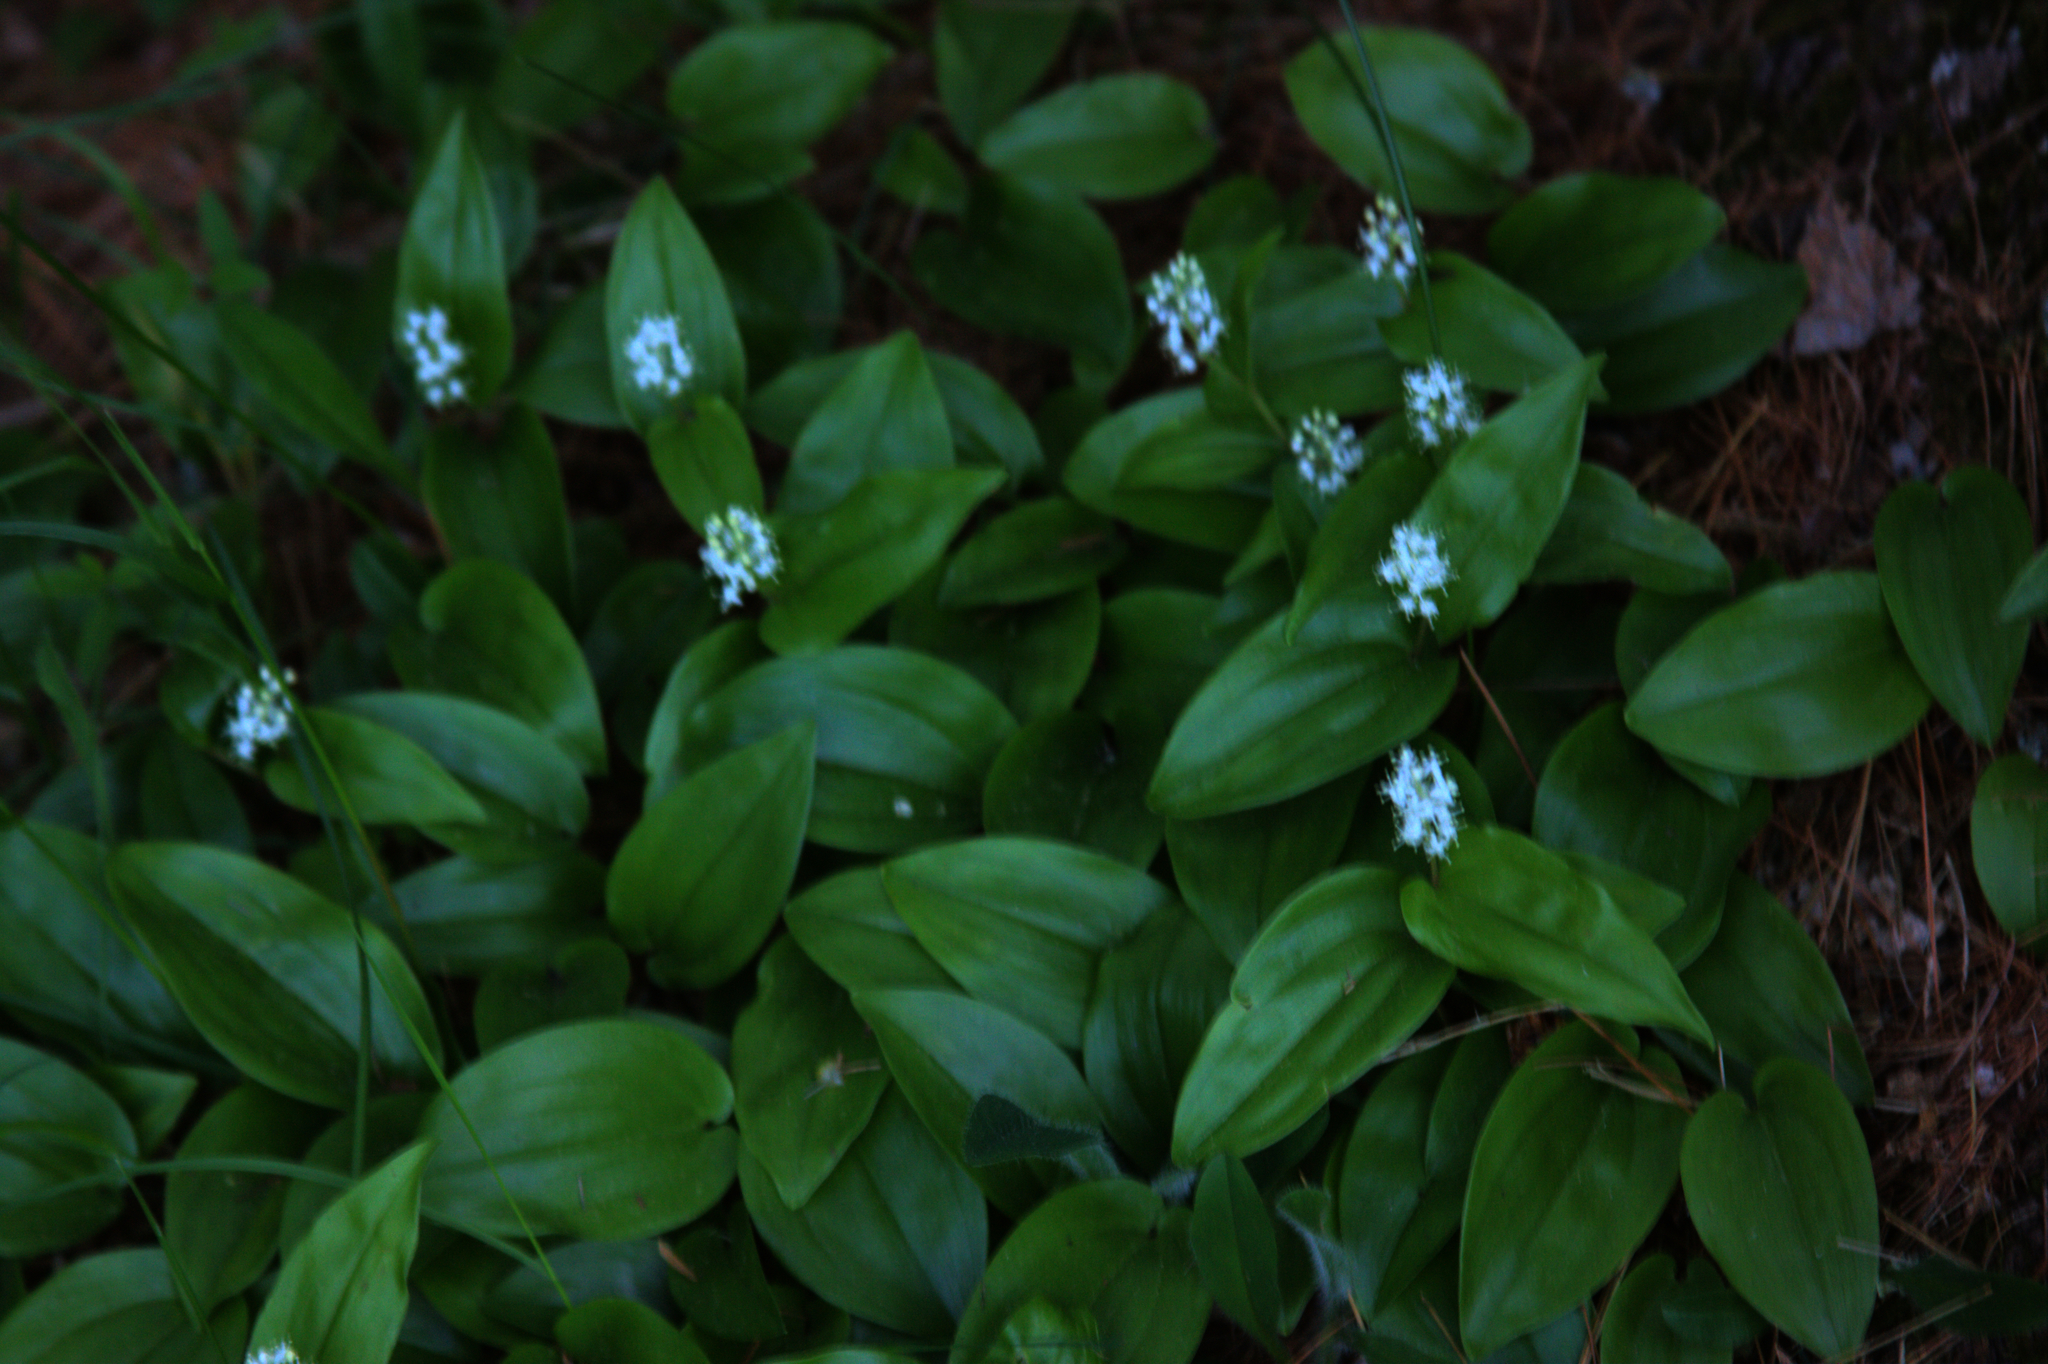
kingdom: Plantae
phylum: Tracheophyta
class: Liliopsida
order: Asparagales
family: Asparagaceae
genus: Maianthemum
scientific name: Maianthemum canadense
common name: False lily-of-the-valley
